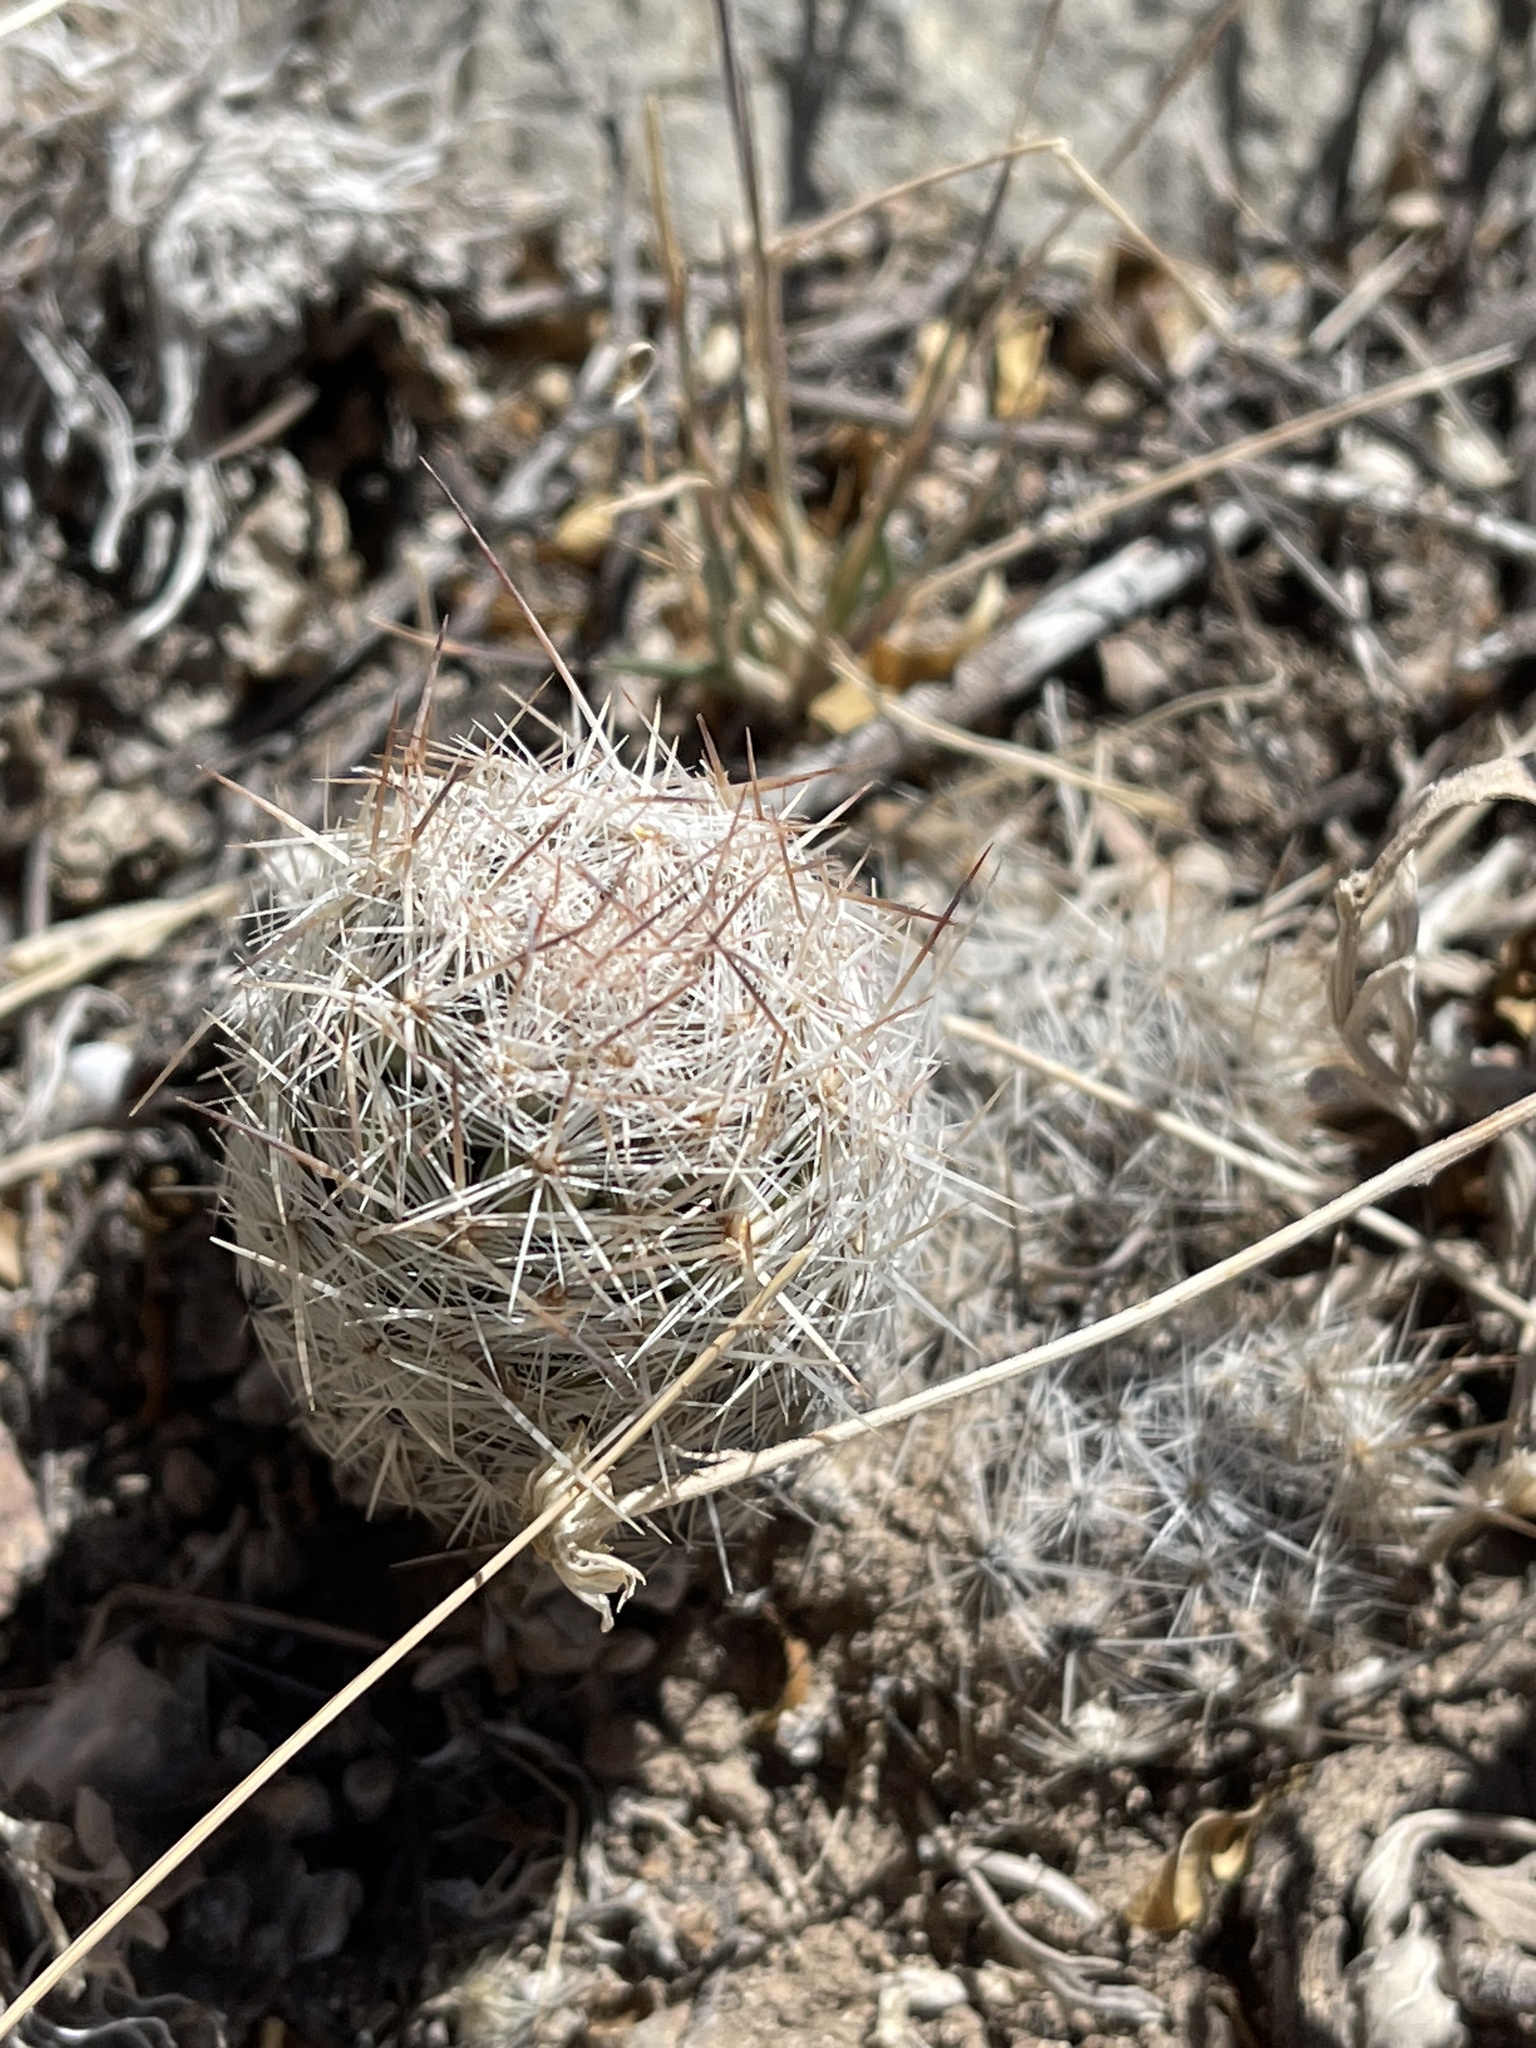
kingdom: Plantae
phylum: Tracheophyta
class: Magnoliopsida
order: Caryophyllales
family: Cactaceae
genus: Pelecyphora
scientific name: Pelecyphora tuberculosa
